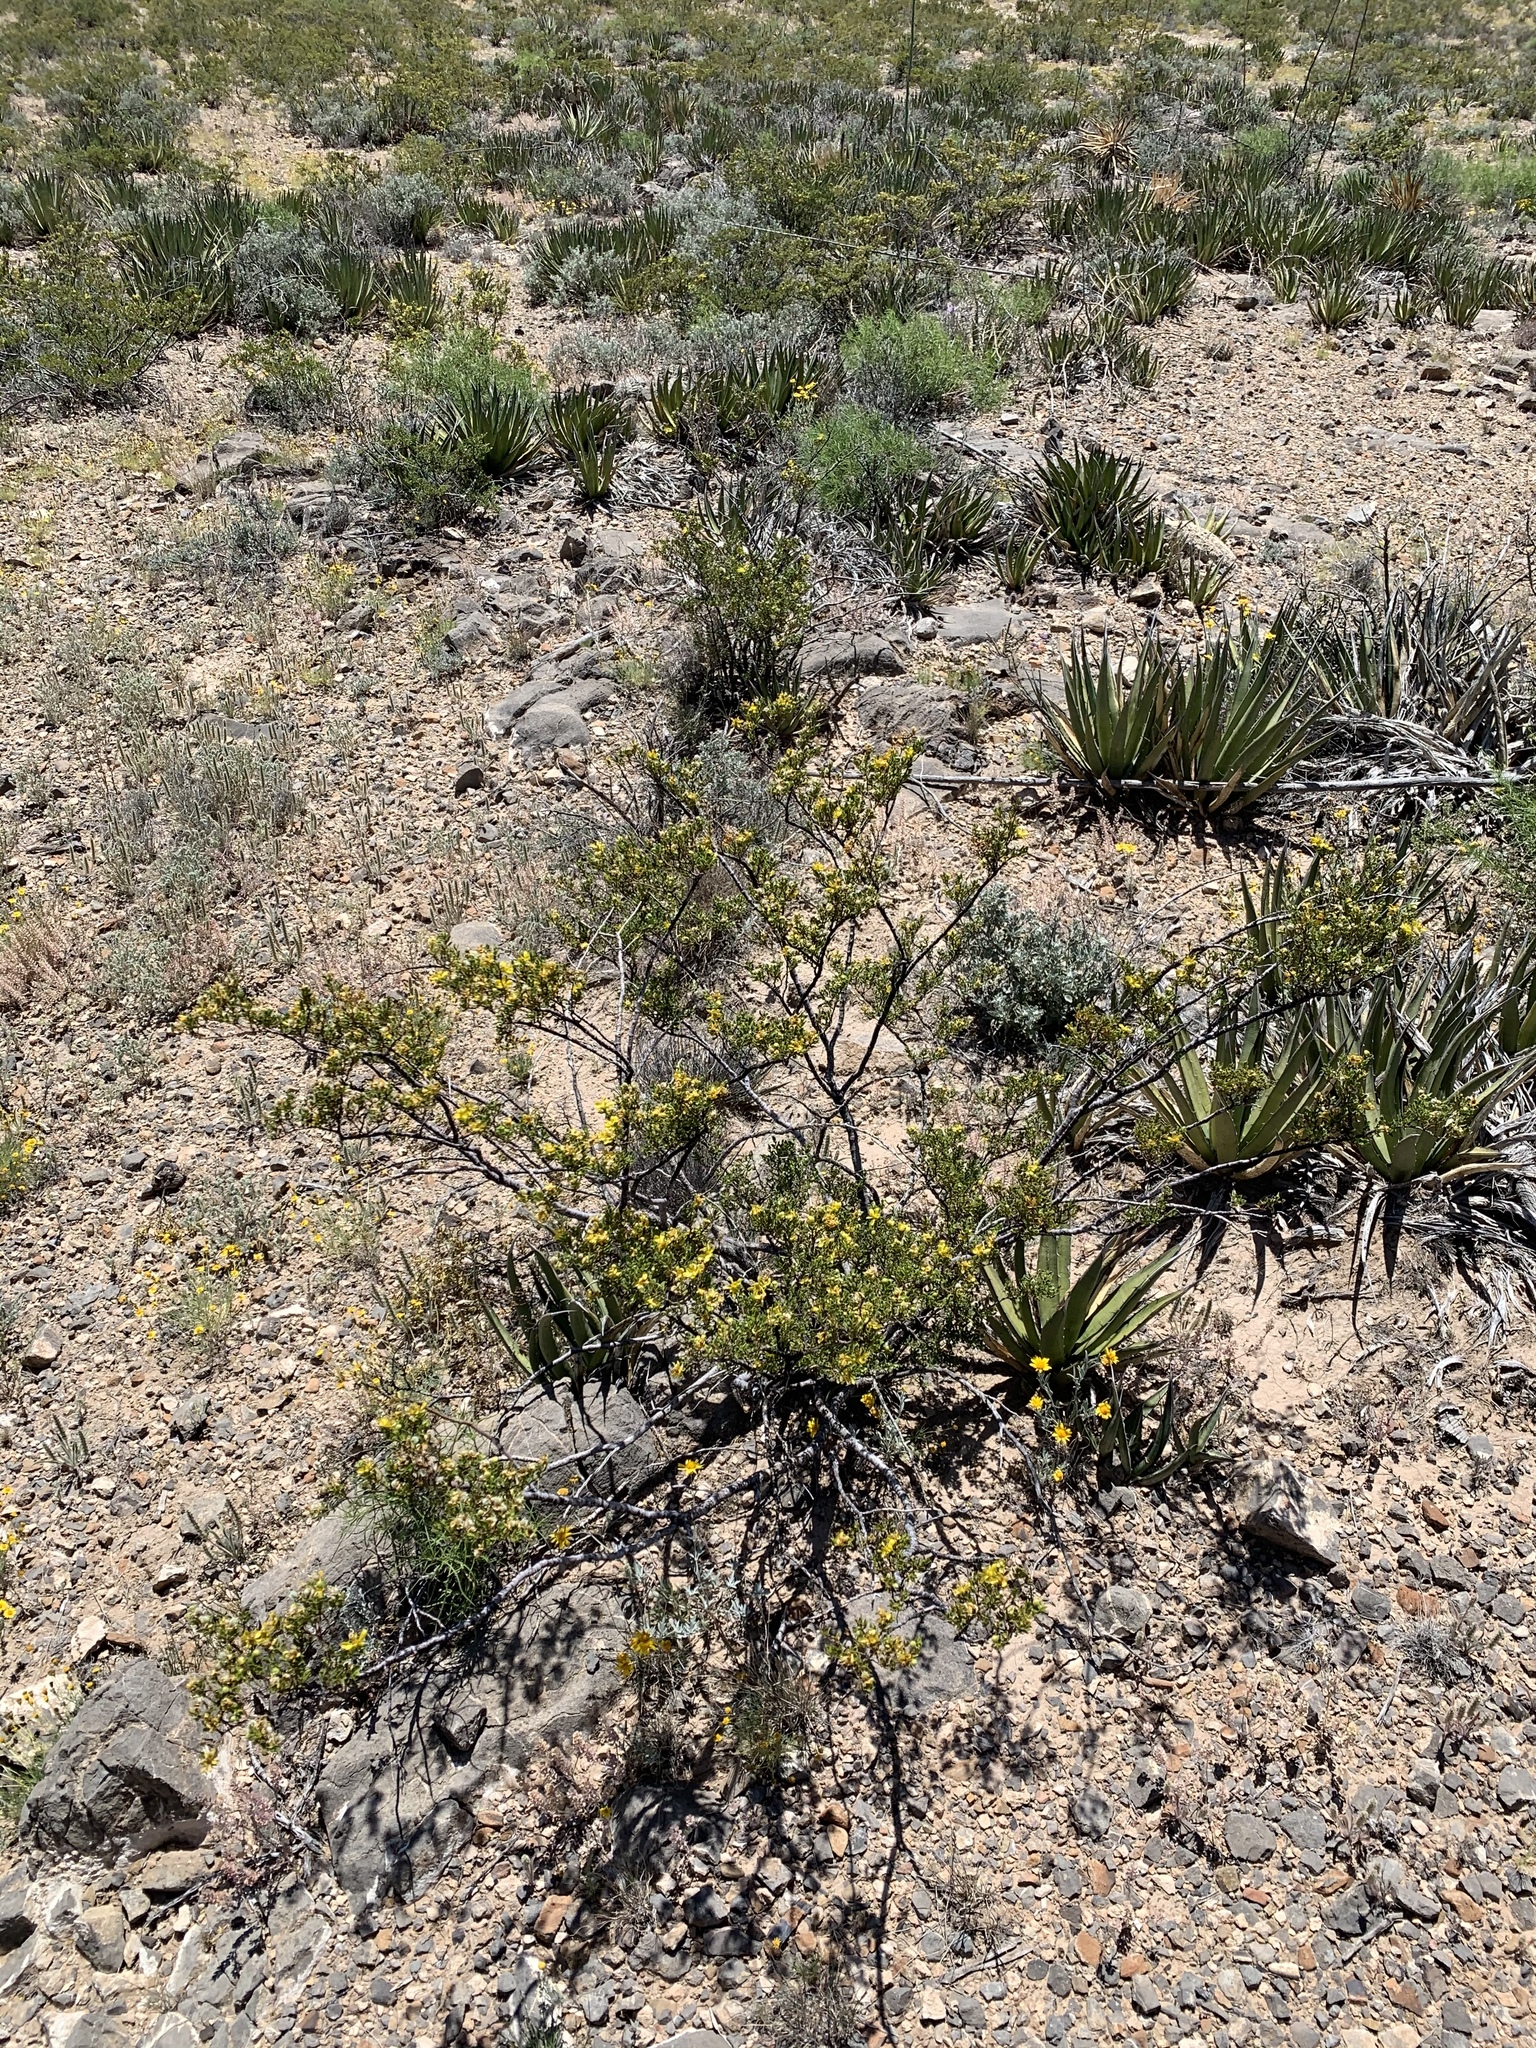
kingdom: Plantae
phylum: Tracheophyta
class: Magnoliopsida
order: Zygophyllales
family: Zygophyllaceae
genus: Larrea
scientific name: Larrea tridentata
